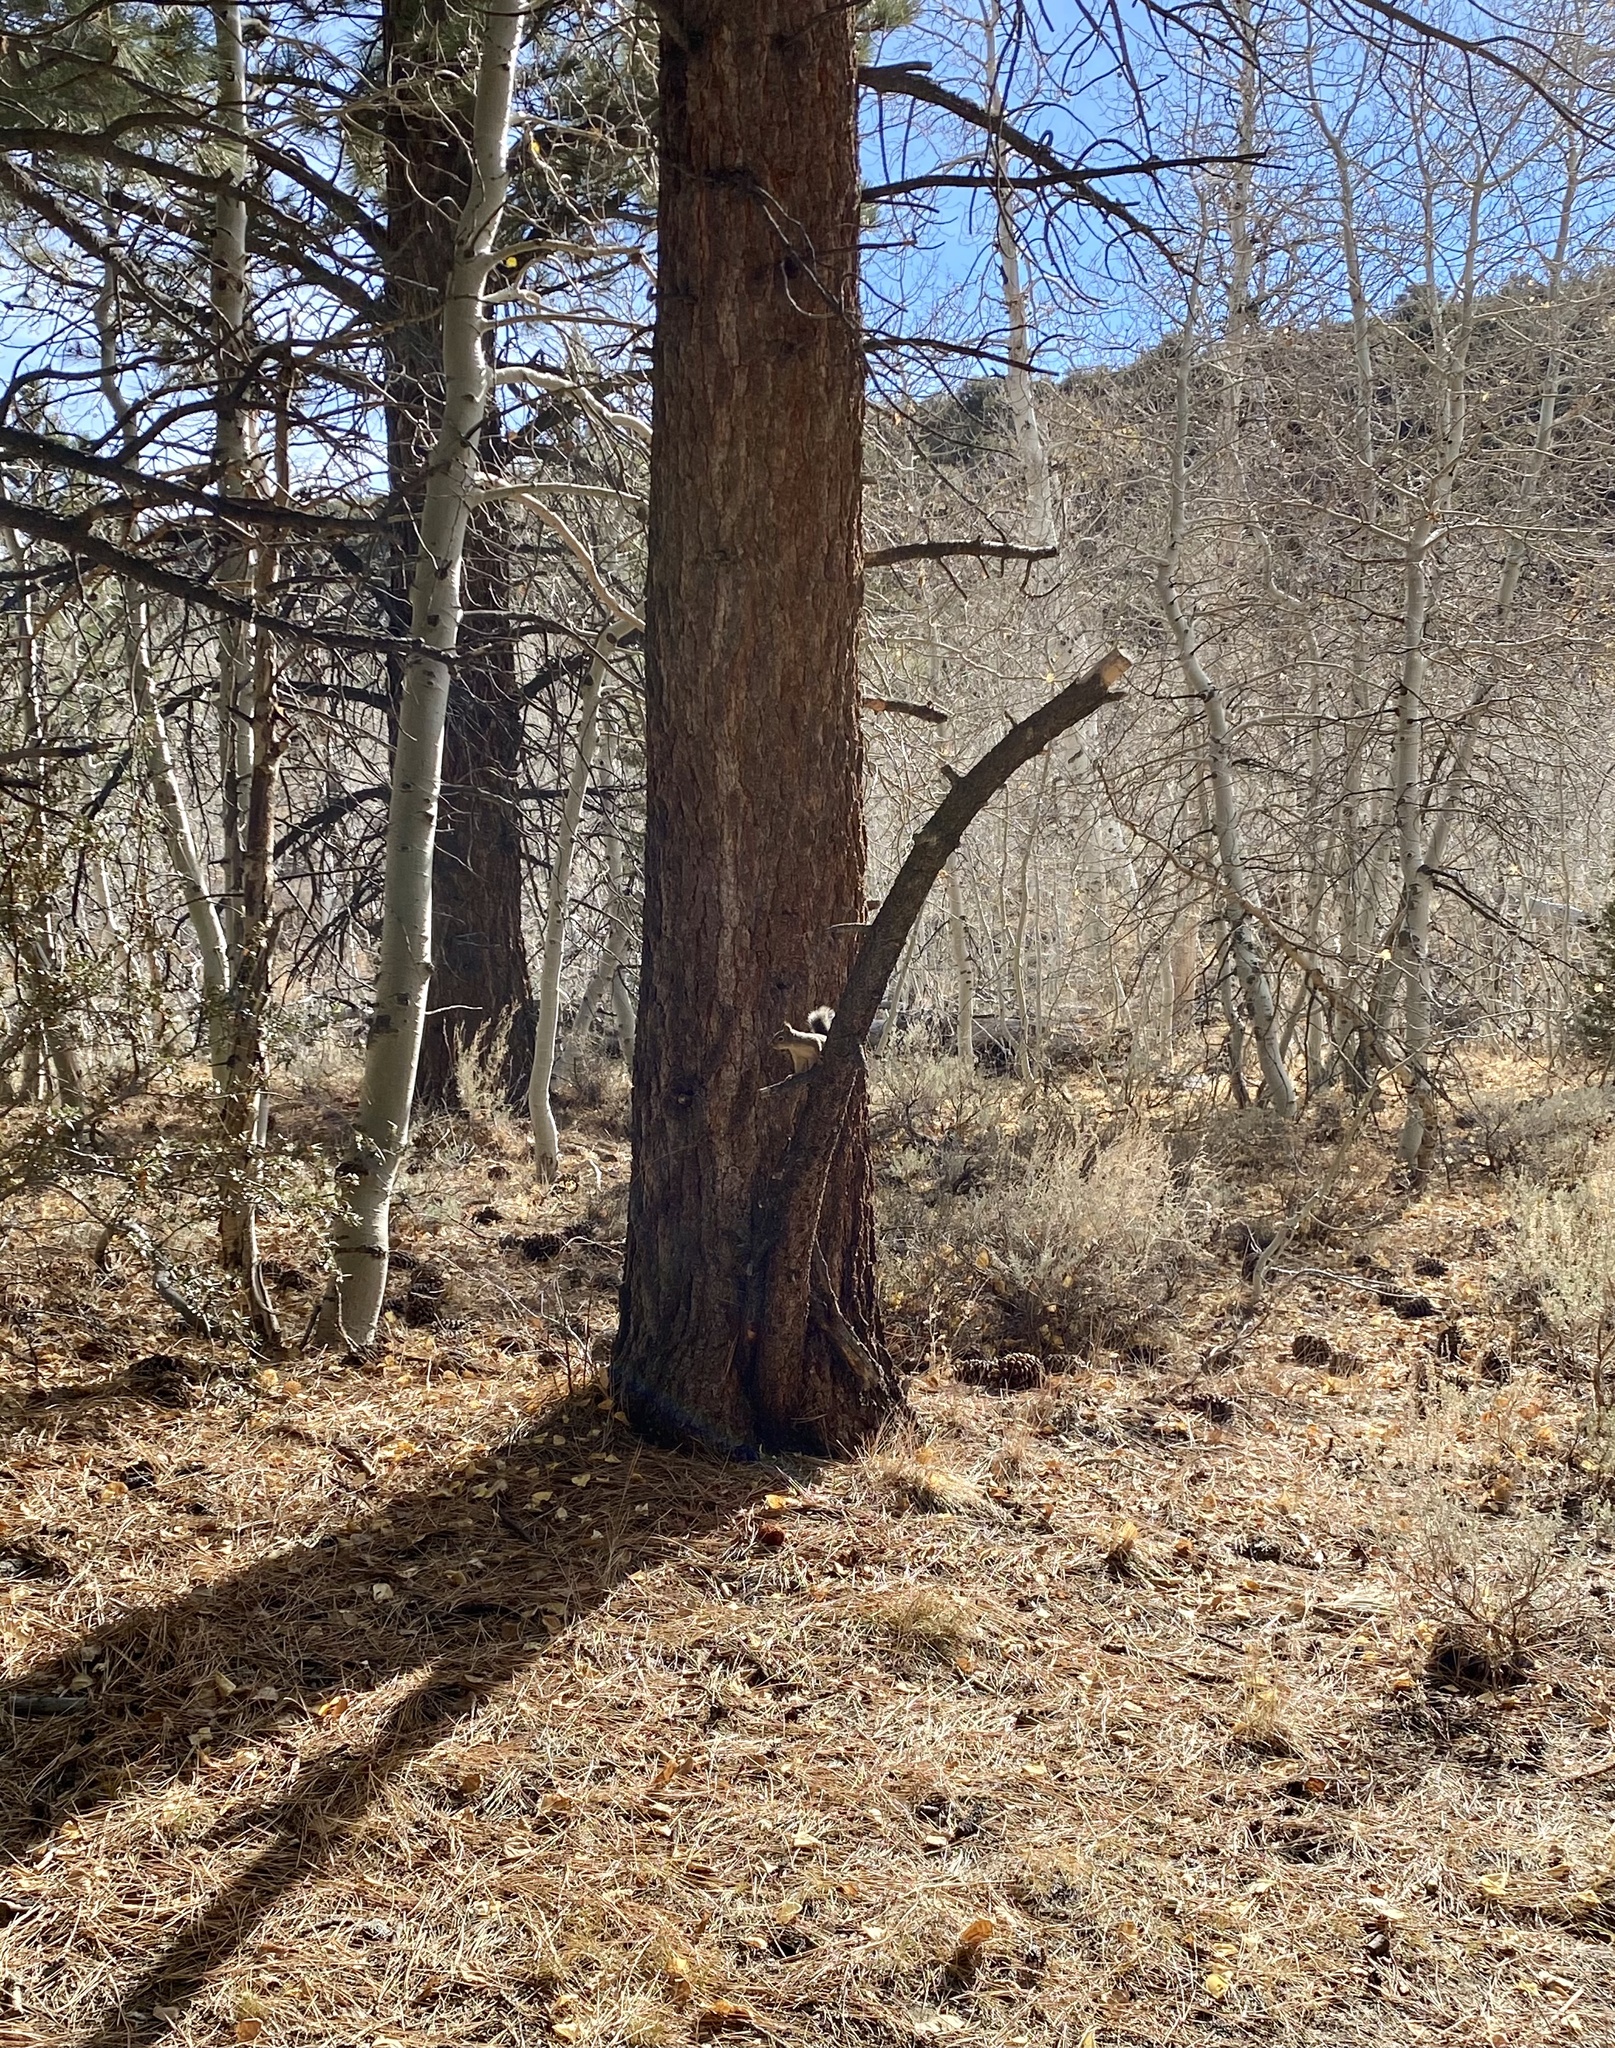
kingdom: Animalia
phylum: Chordata
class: Mammalia
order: Rodentia
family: Sciuridae
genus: Tamiasciurus
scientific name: Tamiasciurus douglasii
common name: Douglas's squirrel
